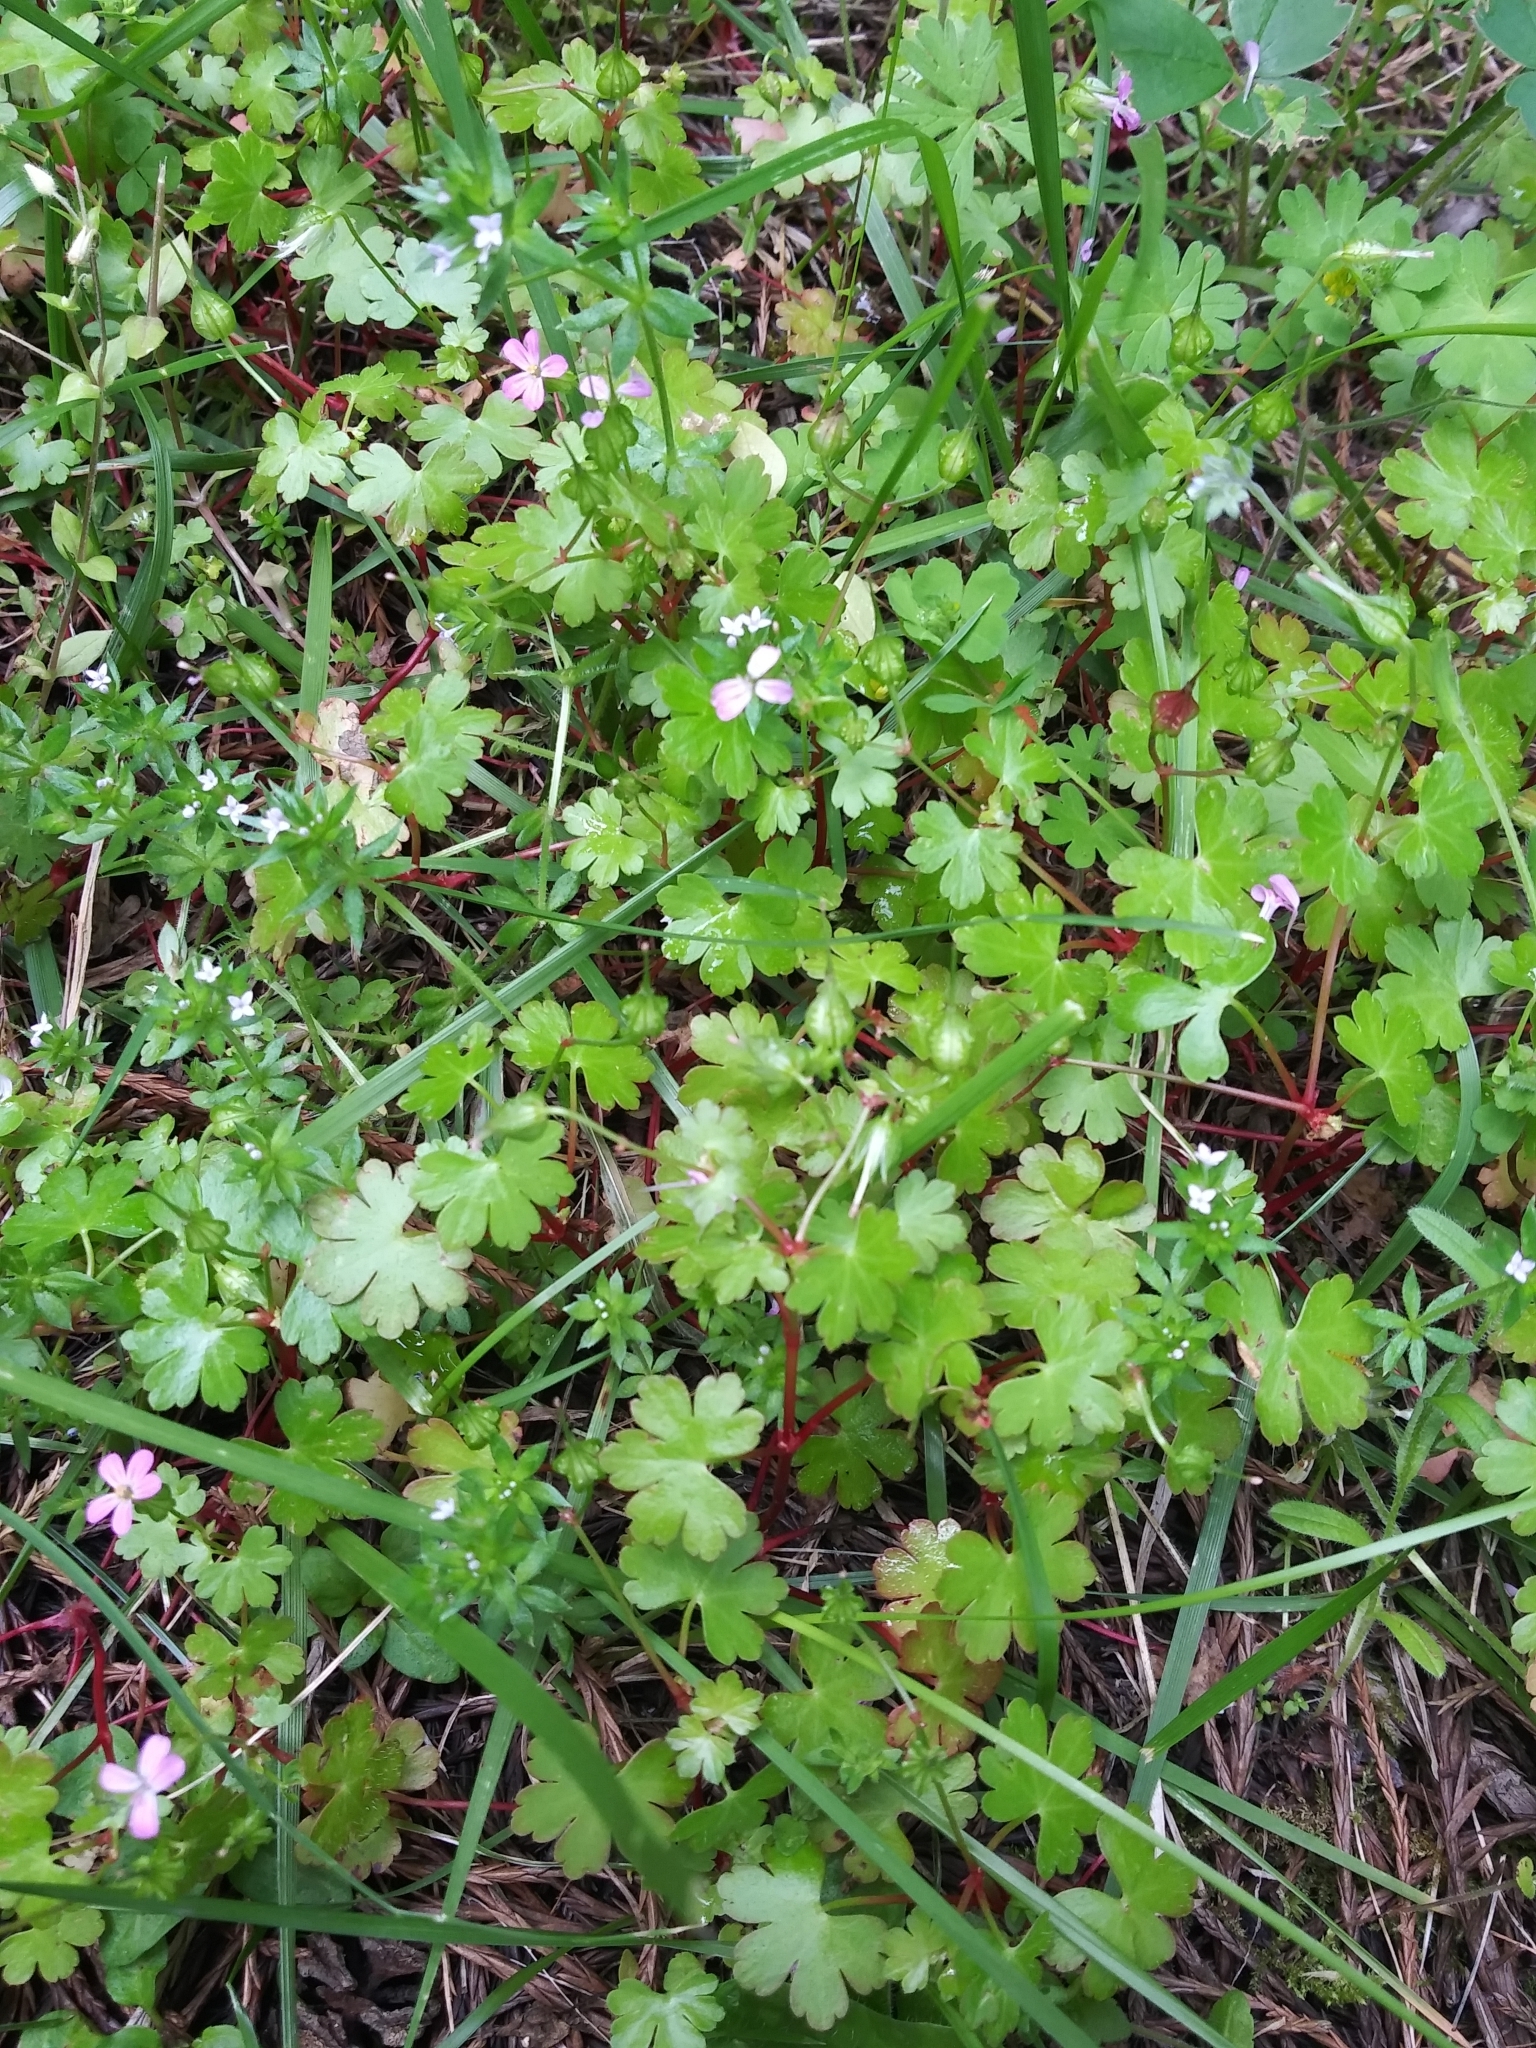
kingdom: Plantae
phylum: Tracheophyta
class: Magnoliopsida
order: Geraniales
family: Geraniaceae
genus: Geranium
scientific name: Geranium lucidum
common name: Shining crane's-bill
